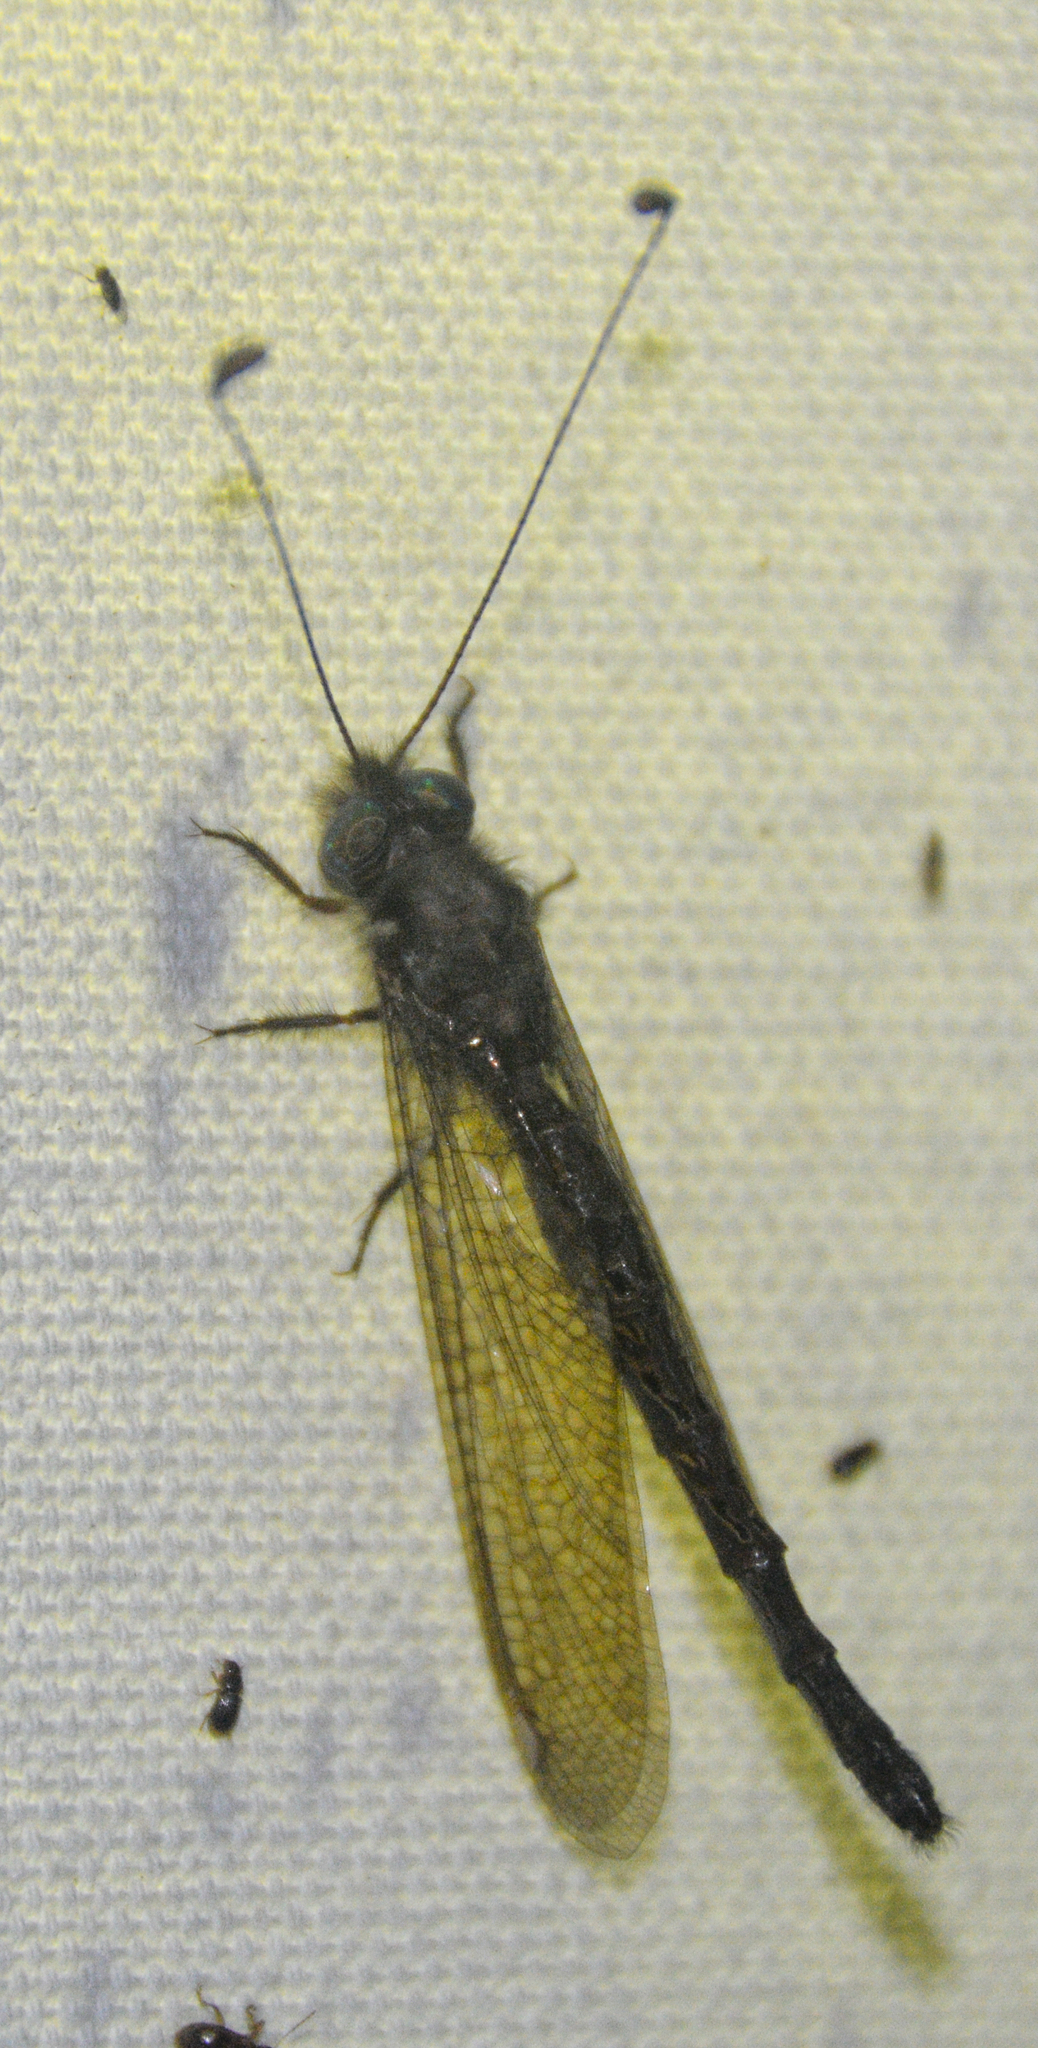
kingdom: Animalia
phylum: Arthropoda
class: Insecta
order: Neuroptera
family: Ascalaphidae
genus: Ululodes
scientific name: Ululodes quadripunctatus
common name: Four-spotted owlfly
